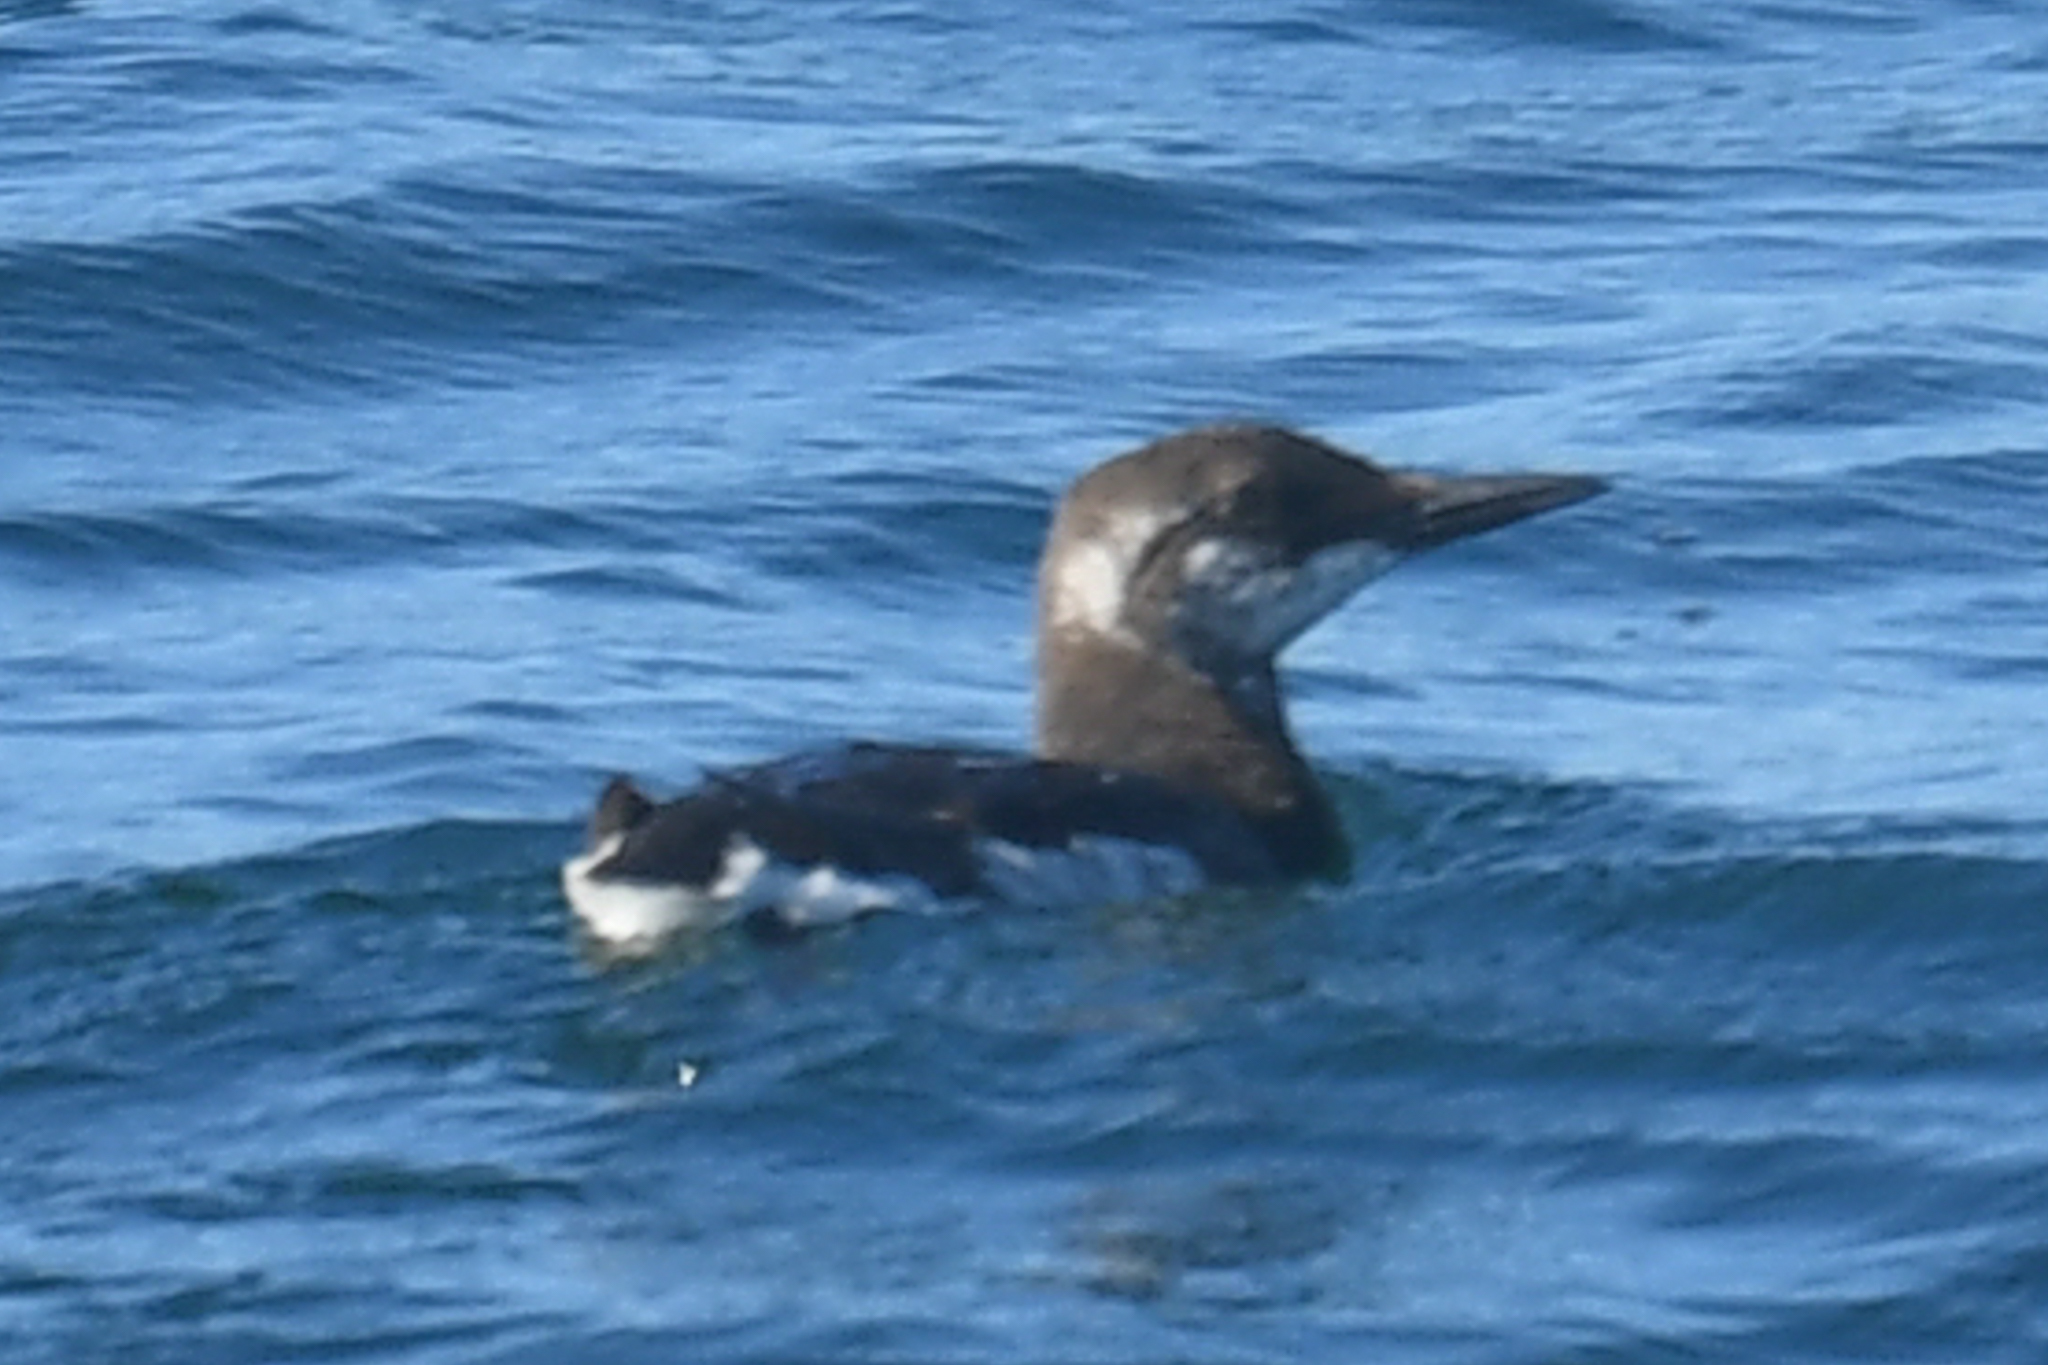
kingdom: Animalia
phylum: Chordata
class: Aves
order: Charadriiformes
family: Alcidae
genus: Uria
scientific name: Uria aalge
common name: Common murre
